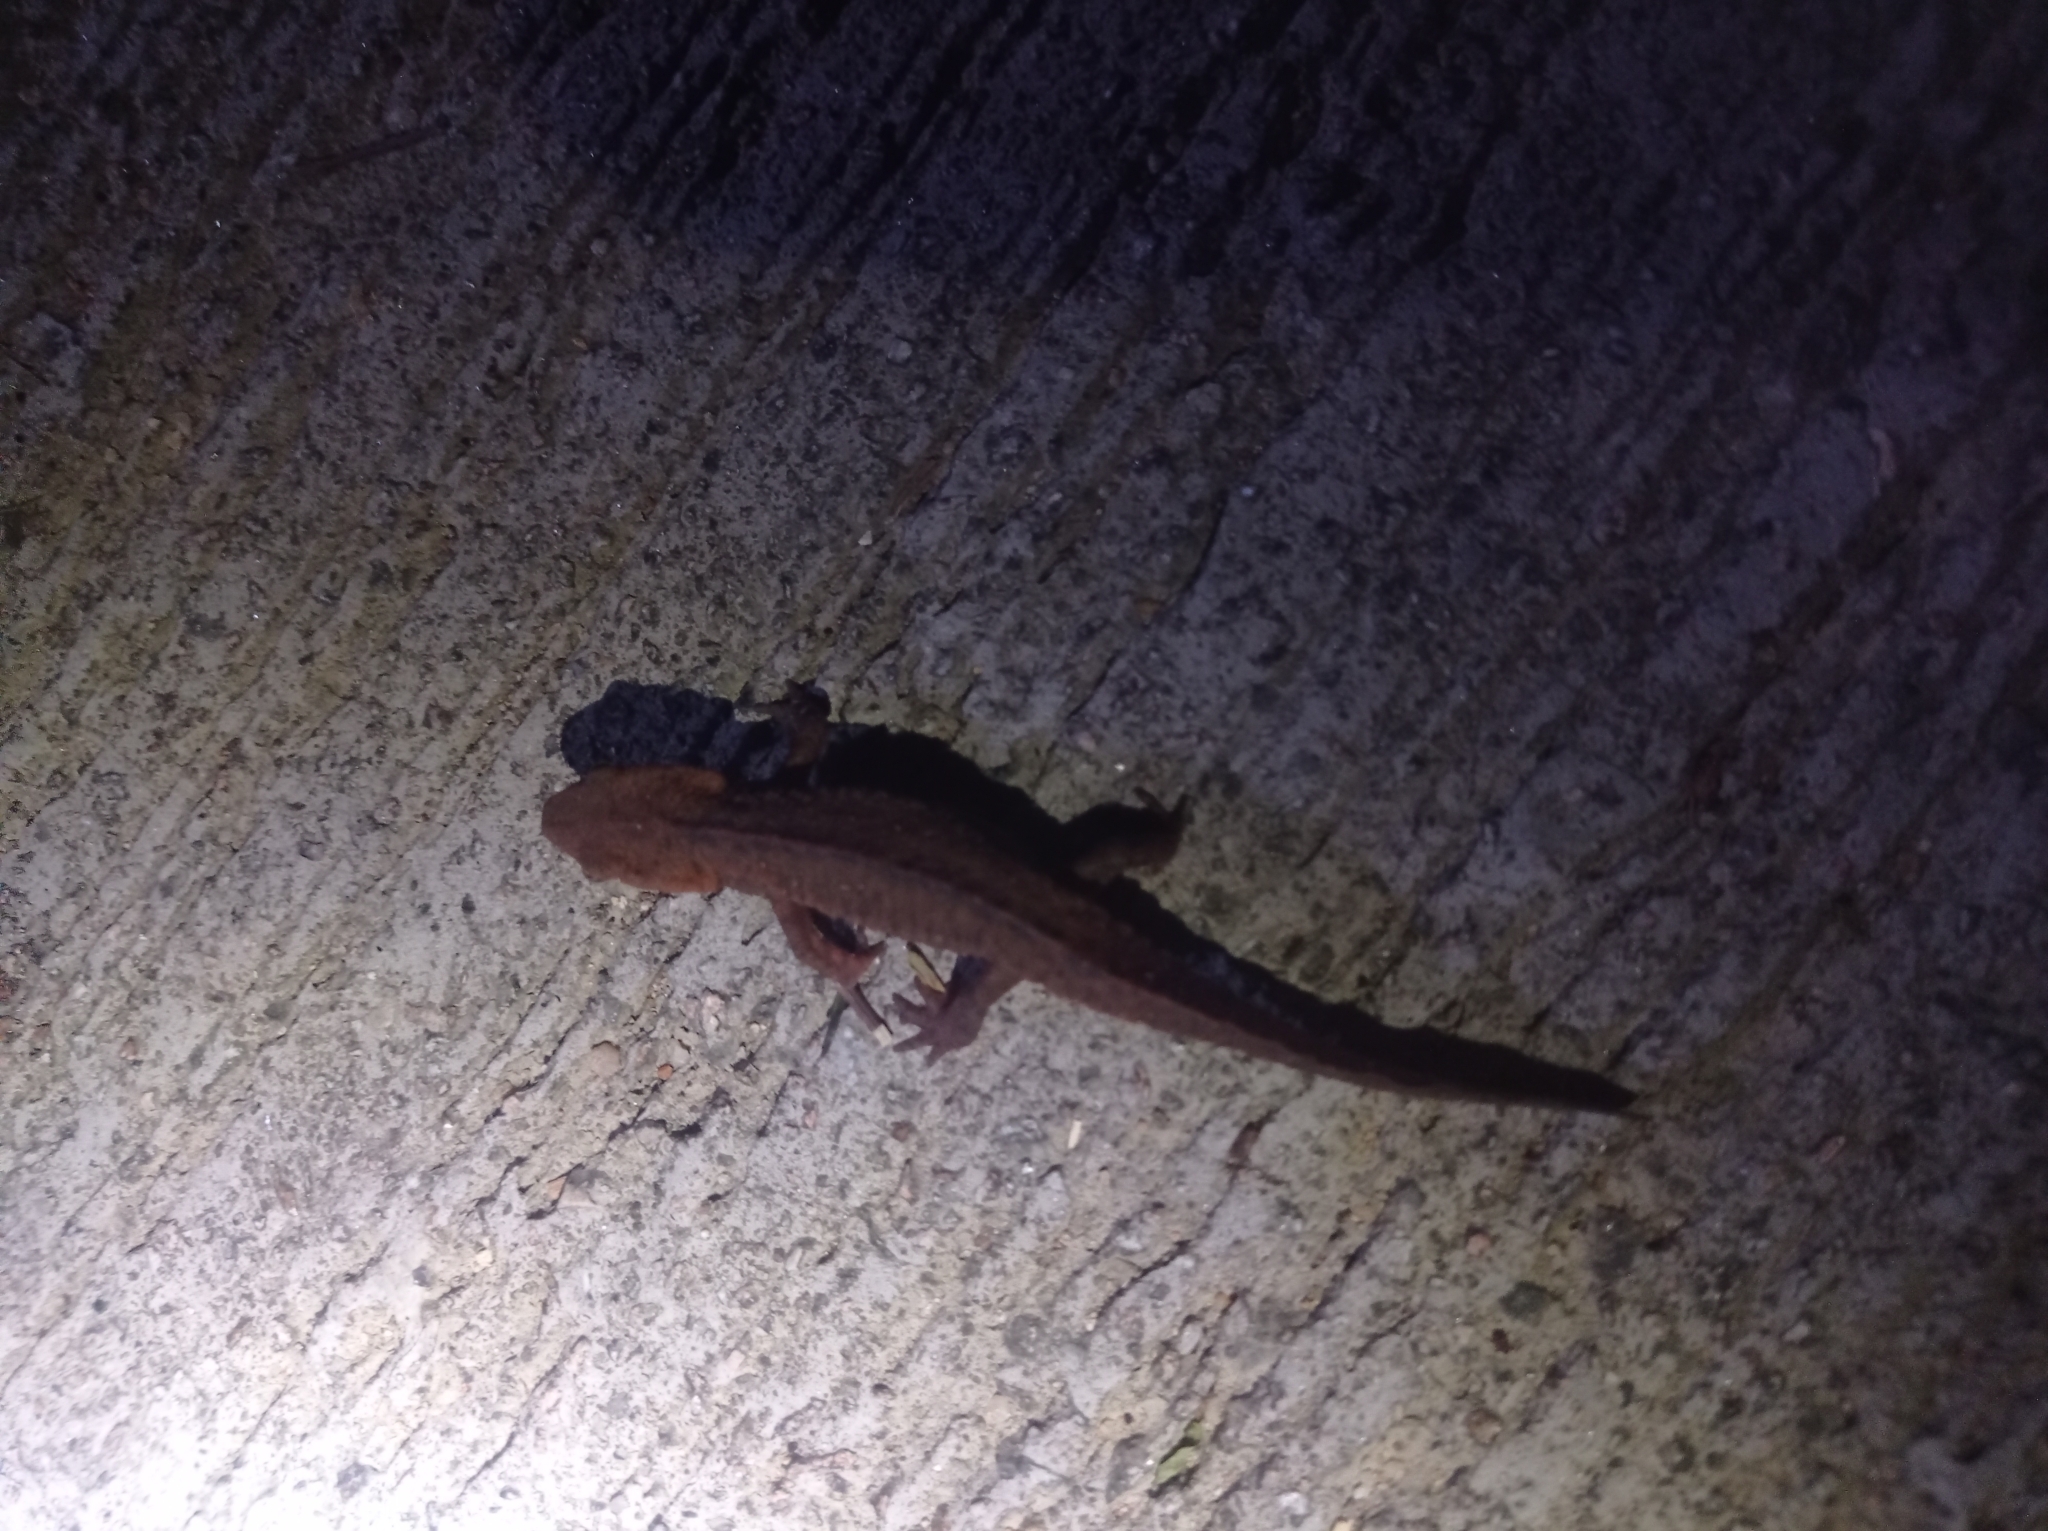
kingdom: Animalia
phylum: Chordata
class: Amphibia
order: Caudata
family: Salamandridae
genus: Paramesotriton
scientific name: Paramesotriton hongkongensis
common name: Hong kong warty newt
